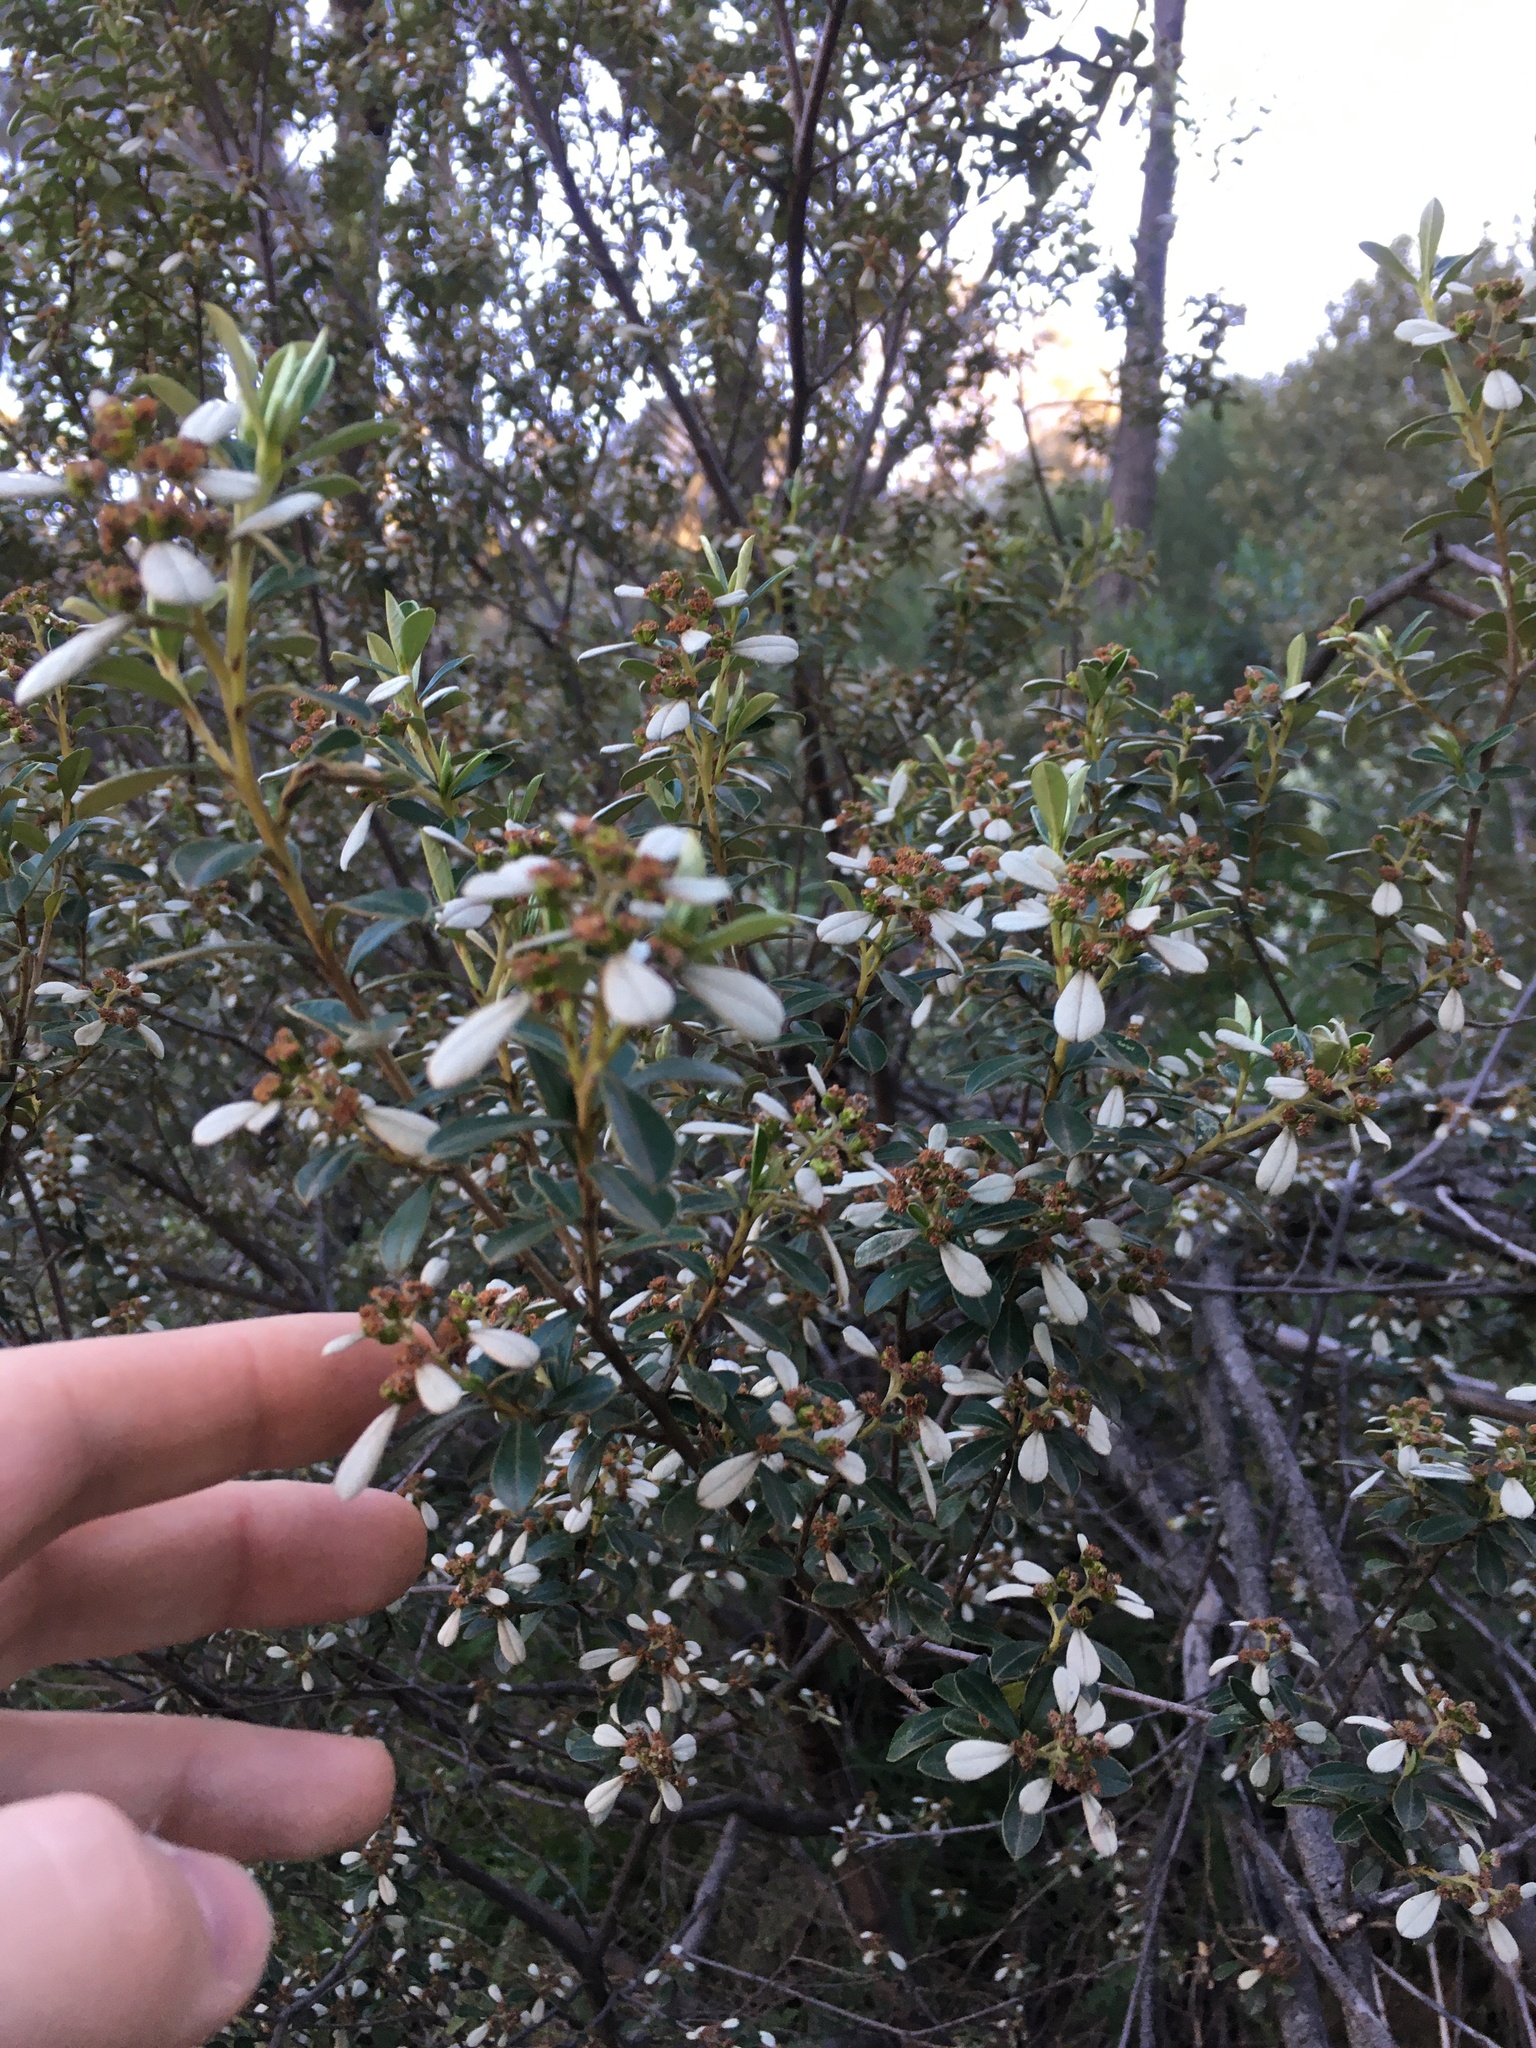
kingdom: Plantae
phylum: Tracheophyta
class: Magnoliopsida
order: Rosales
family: Rhamnaceae
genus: Spyridium
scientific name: Spyridium daphnoides
